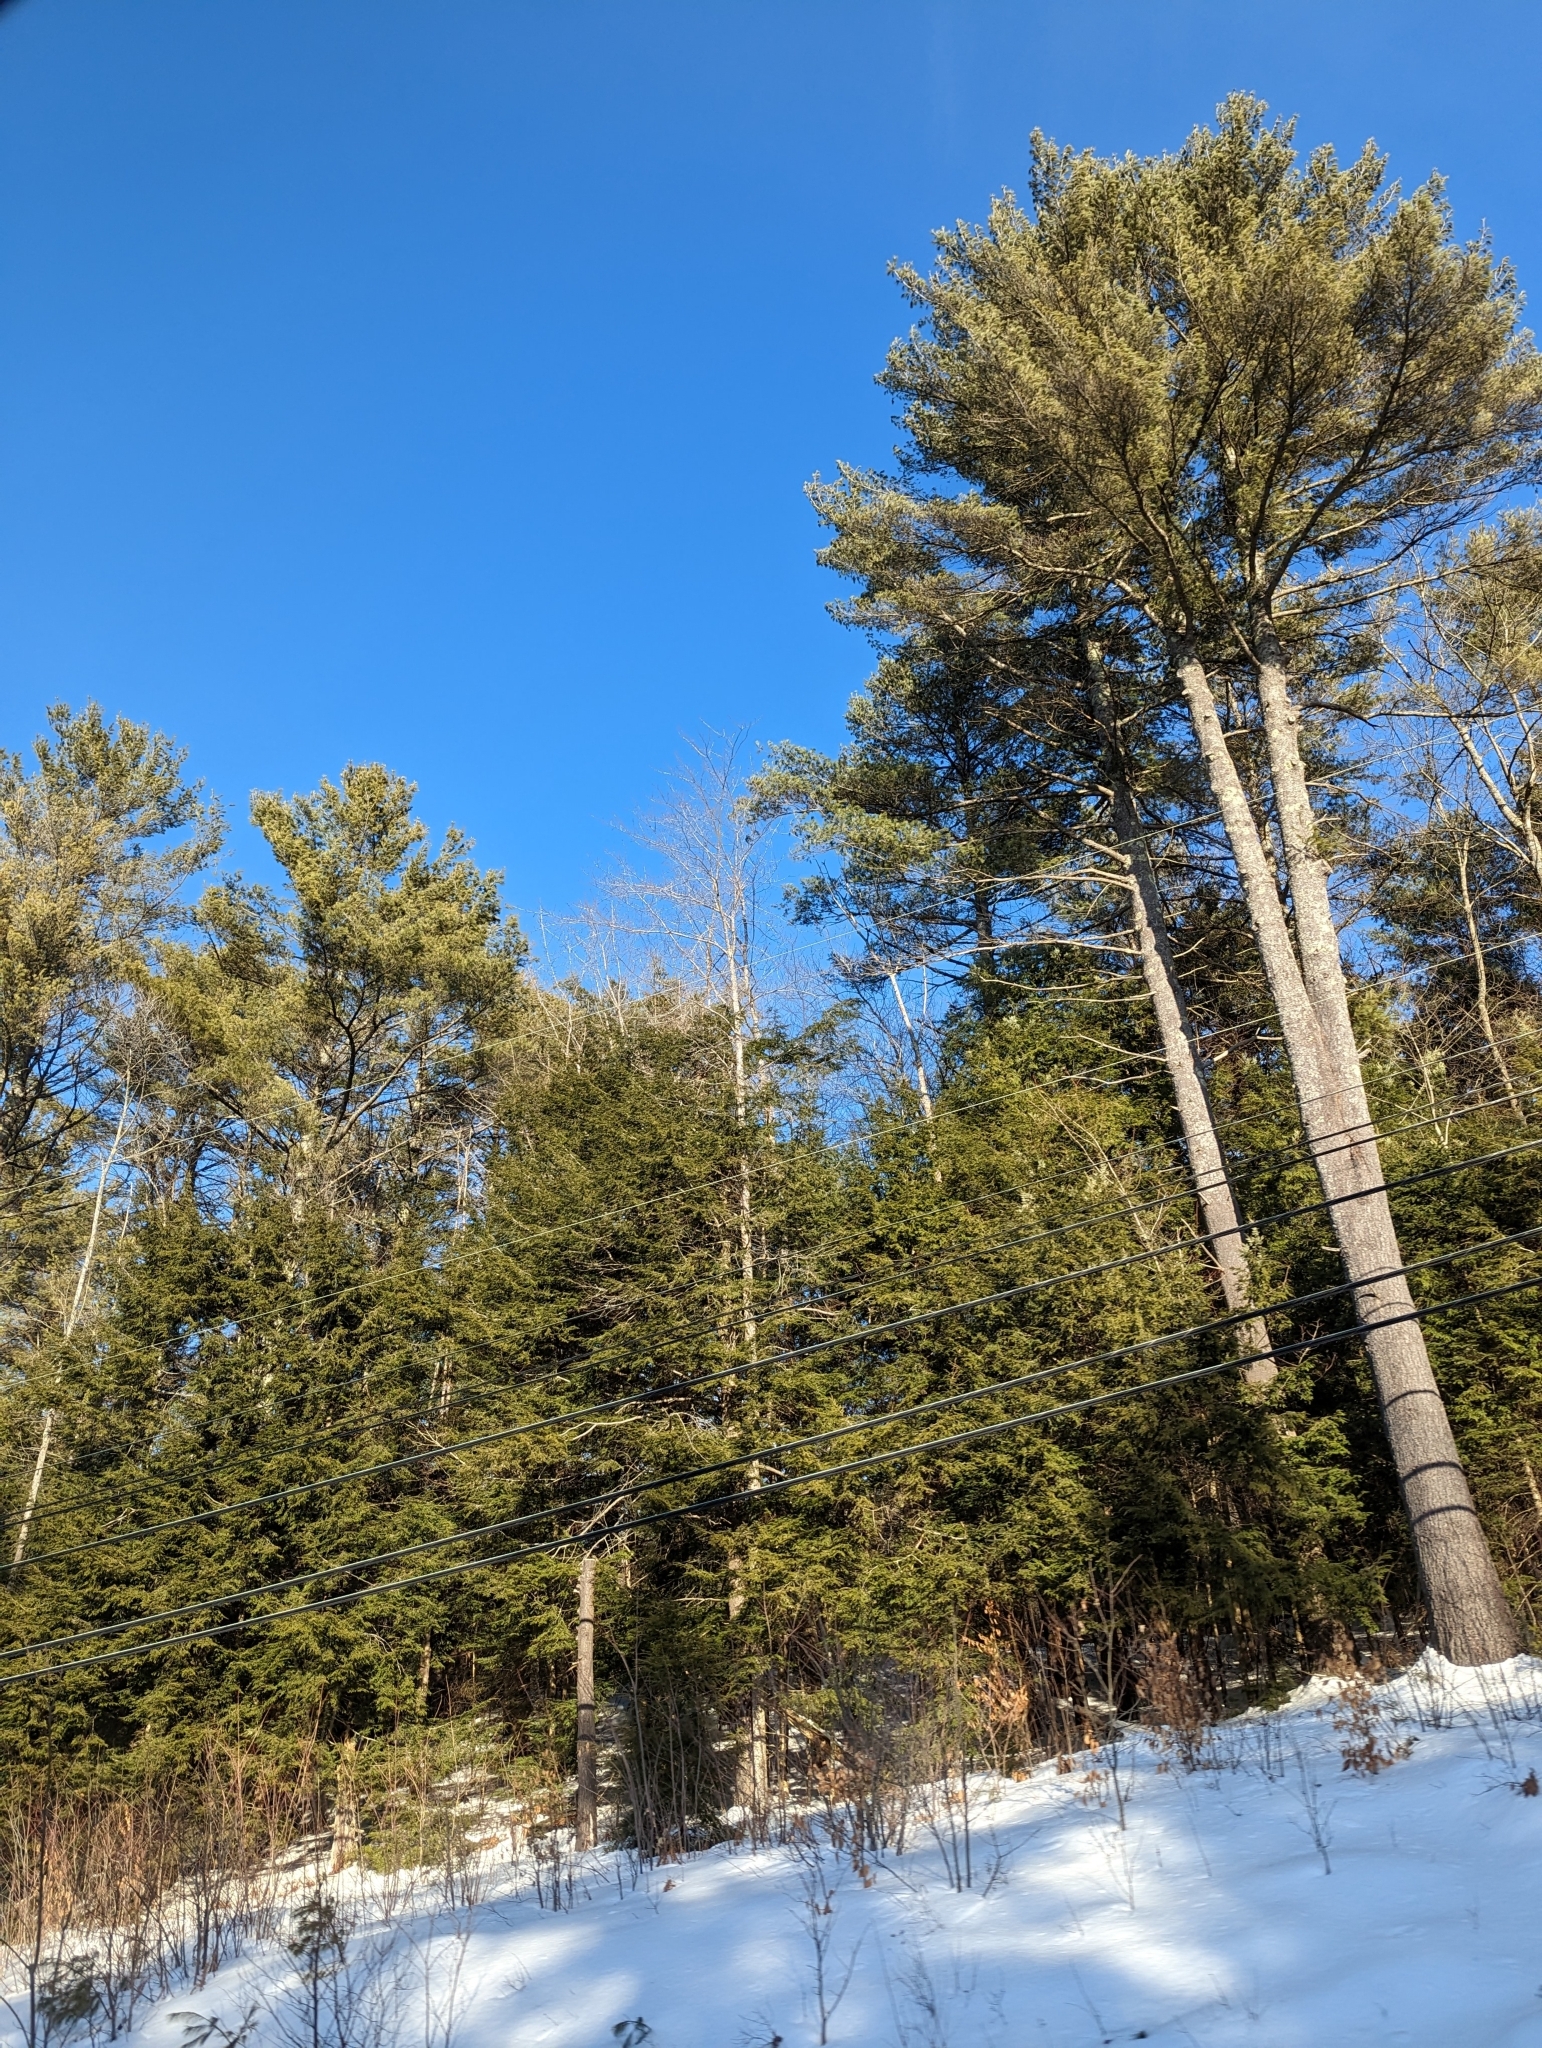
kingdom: Plantae
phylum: Tracheophyta
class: Pinopsida
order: Pinales
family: Pinaceae
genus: Pinus
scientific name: Pinus strobus
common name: Weymouth pine
